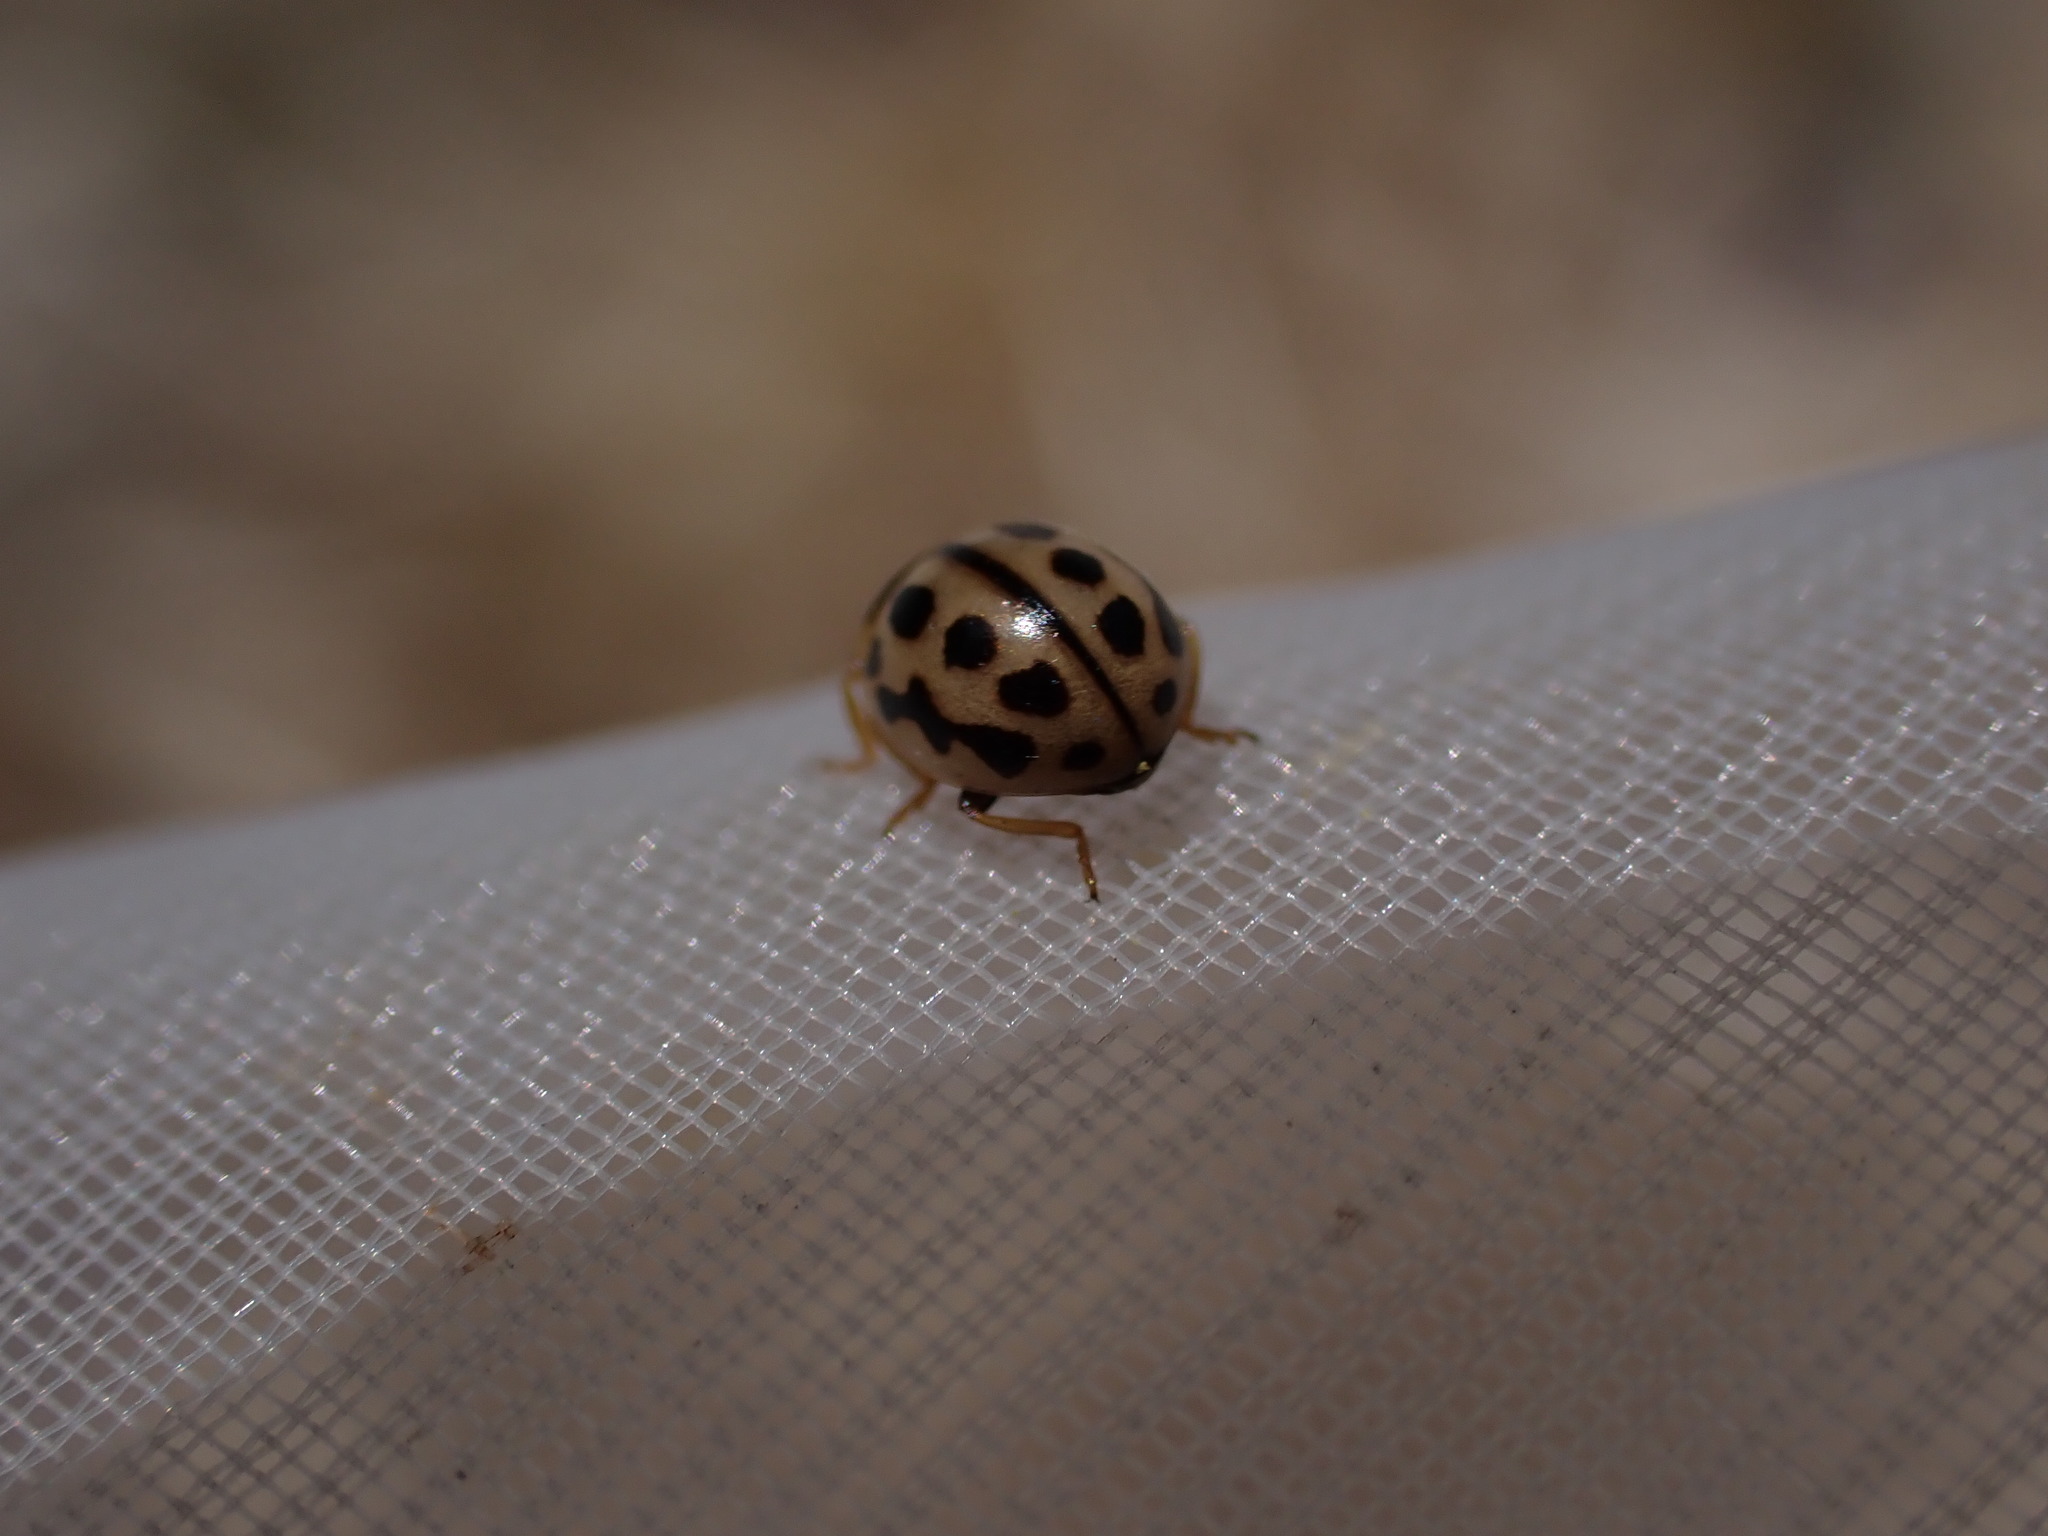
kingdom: Animalia
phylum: Arthropoda
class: Insecta
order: Coleoptera
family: Coccinellidae
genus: Tytthaspis
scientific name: Tytthaspis sedecimpunctata
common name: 16-spot ladybird
